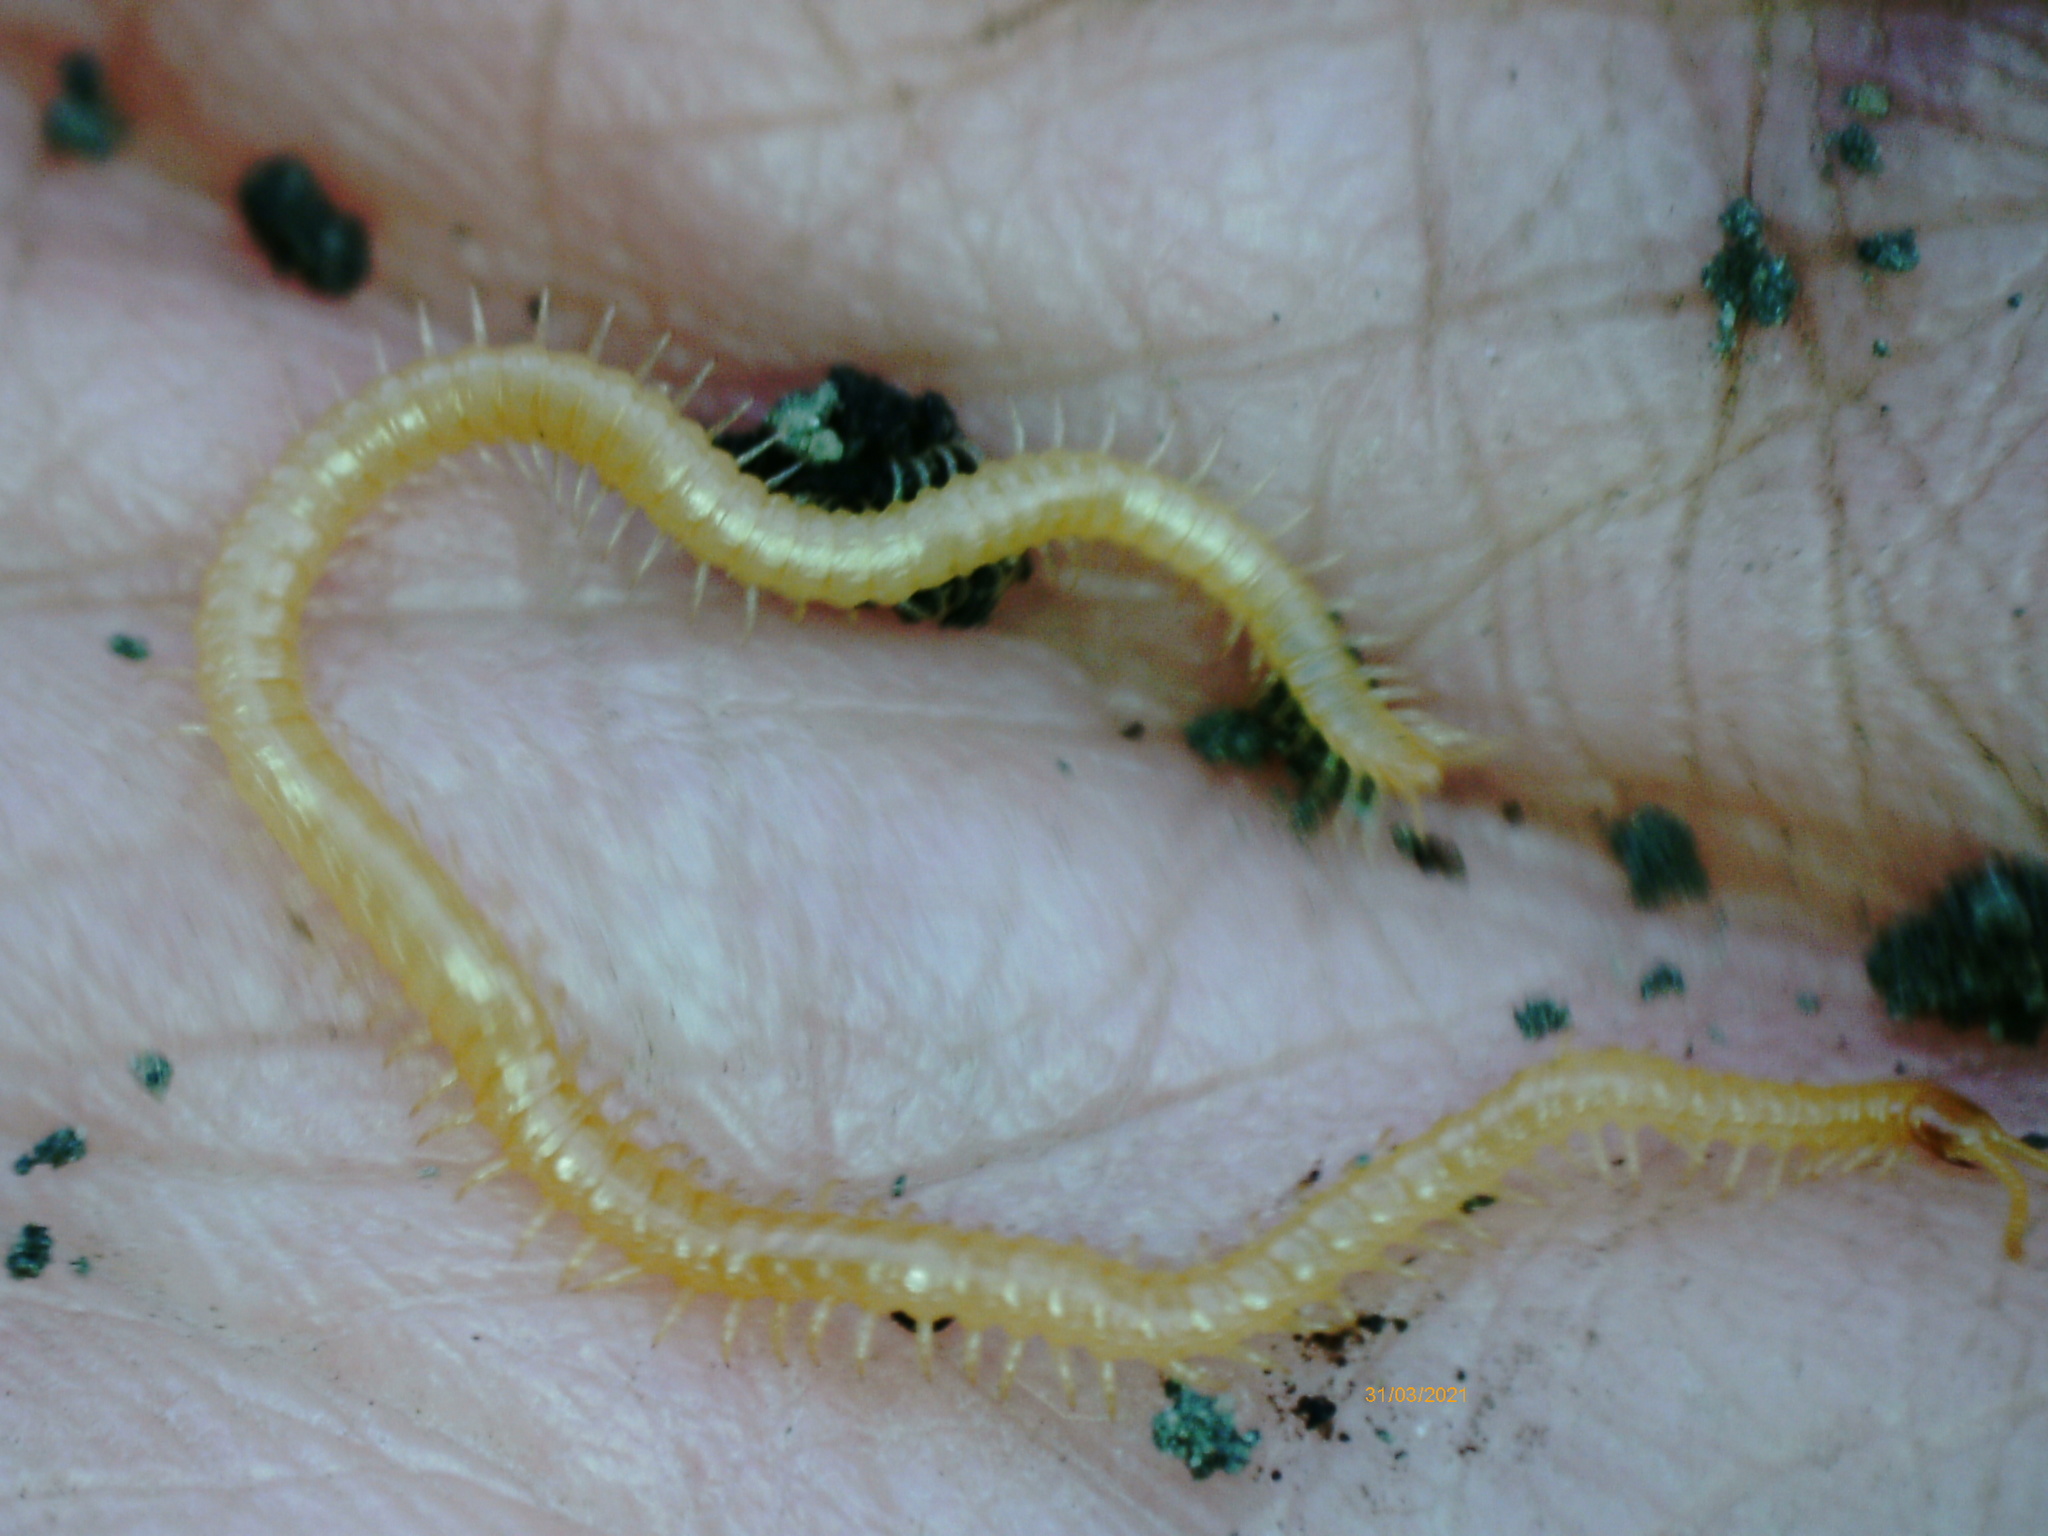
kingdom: Animalia
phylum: Arthropoda
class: Chilopoda
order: Geophilomorpha
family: Himantariidae
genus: Stigmatogaster
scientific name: Stigmatogaster subterranea
